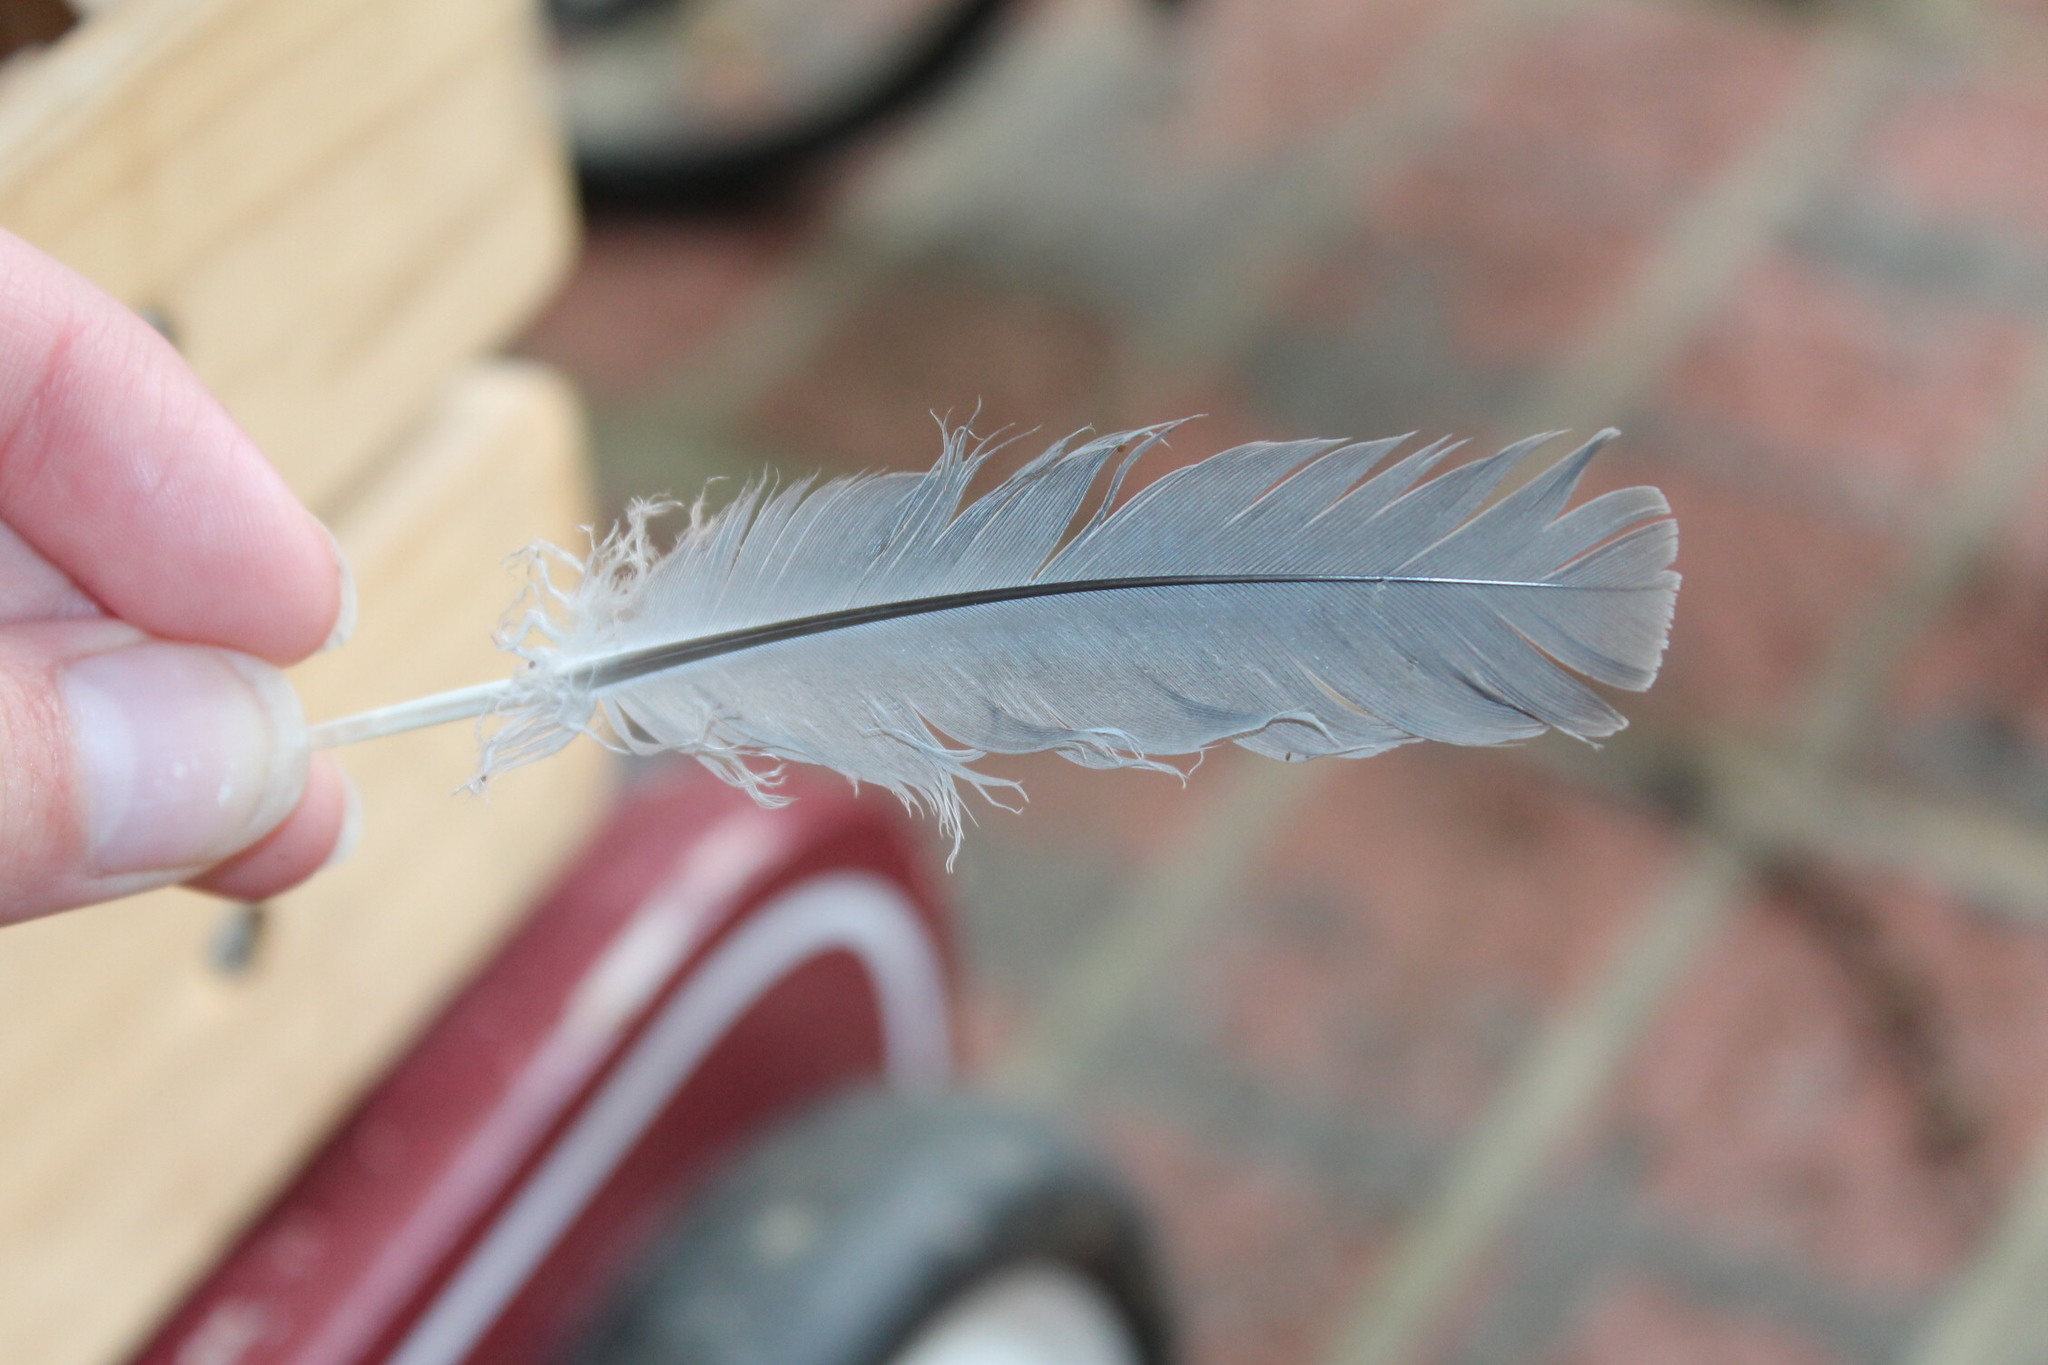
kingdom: Animalia
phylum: Chordata
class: Aves
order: Columbiformes
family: Columbidae
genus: Zenaida
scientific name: Zenaida macroura
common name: Mourning dove
